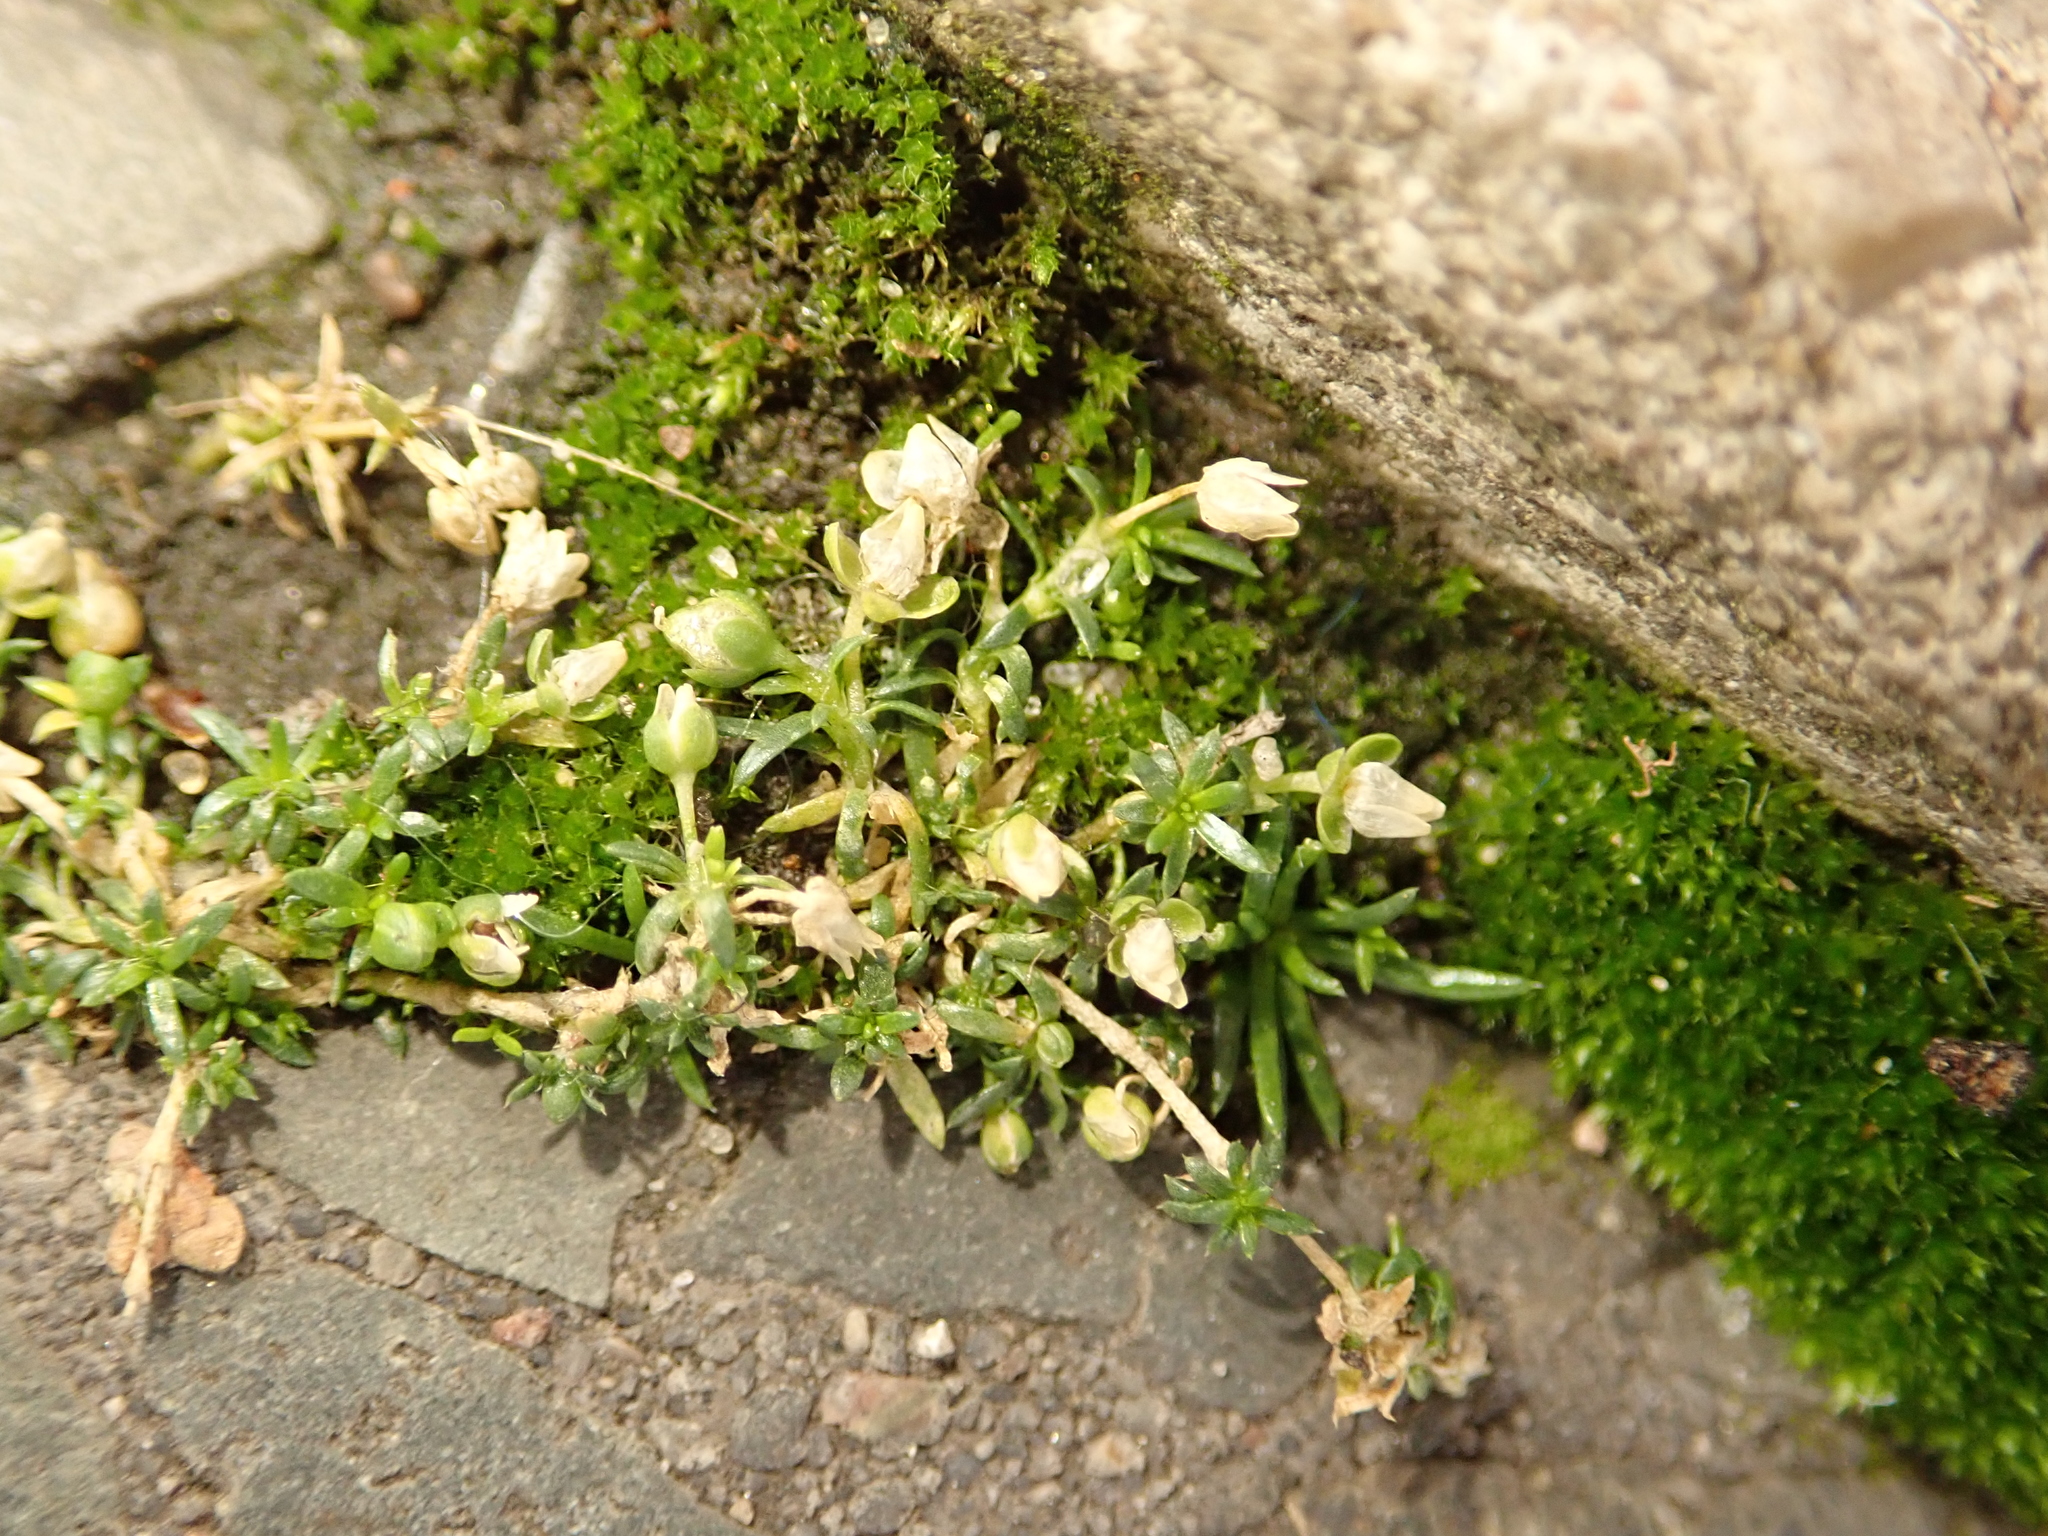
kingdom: Plantae
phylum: Tracheophyta
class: Magnoliopsida
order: Caryophyllales
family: Caryophyllaceae
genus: Sagina
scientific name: Sagina procumbens
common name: Procumbent pearlwort
